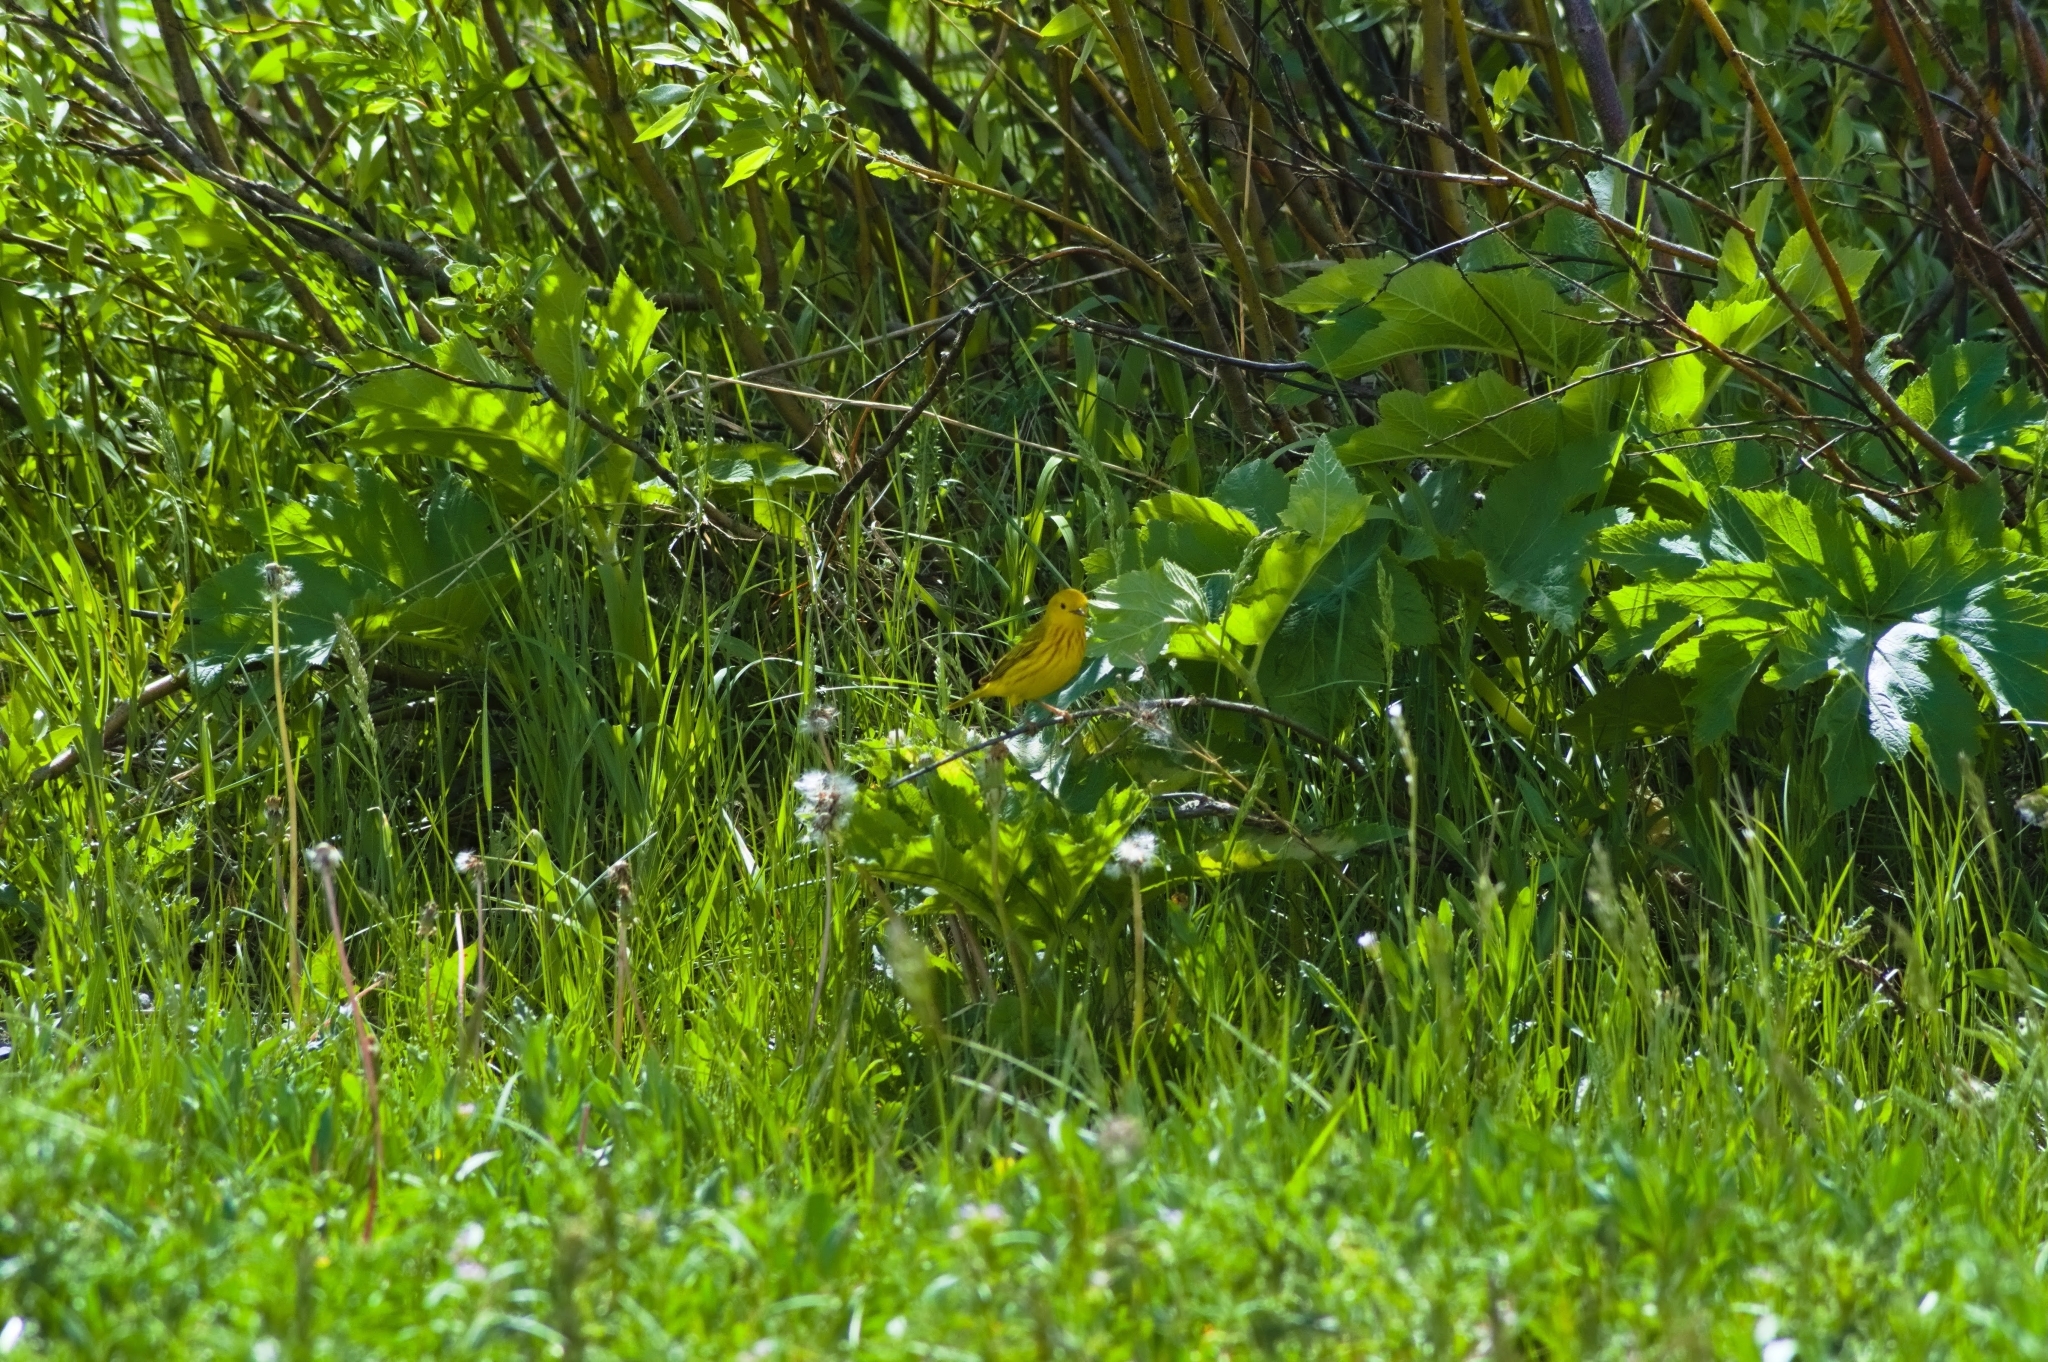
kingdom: Animalia
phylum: Chordata
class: Aves
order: Passeriformes
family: Parulidae
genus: Setophaga
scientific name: Setophaga petechia
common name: Yellow warbler
